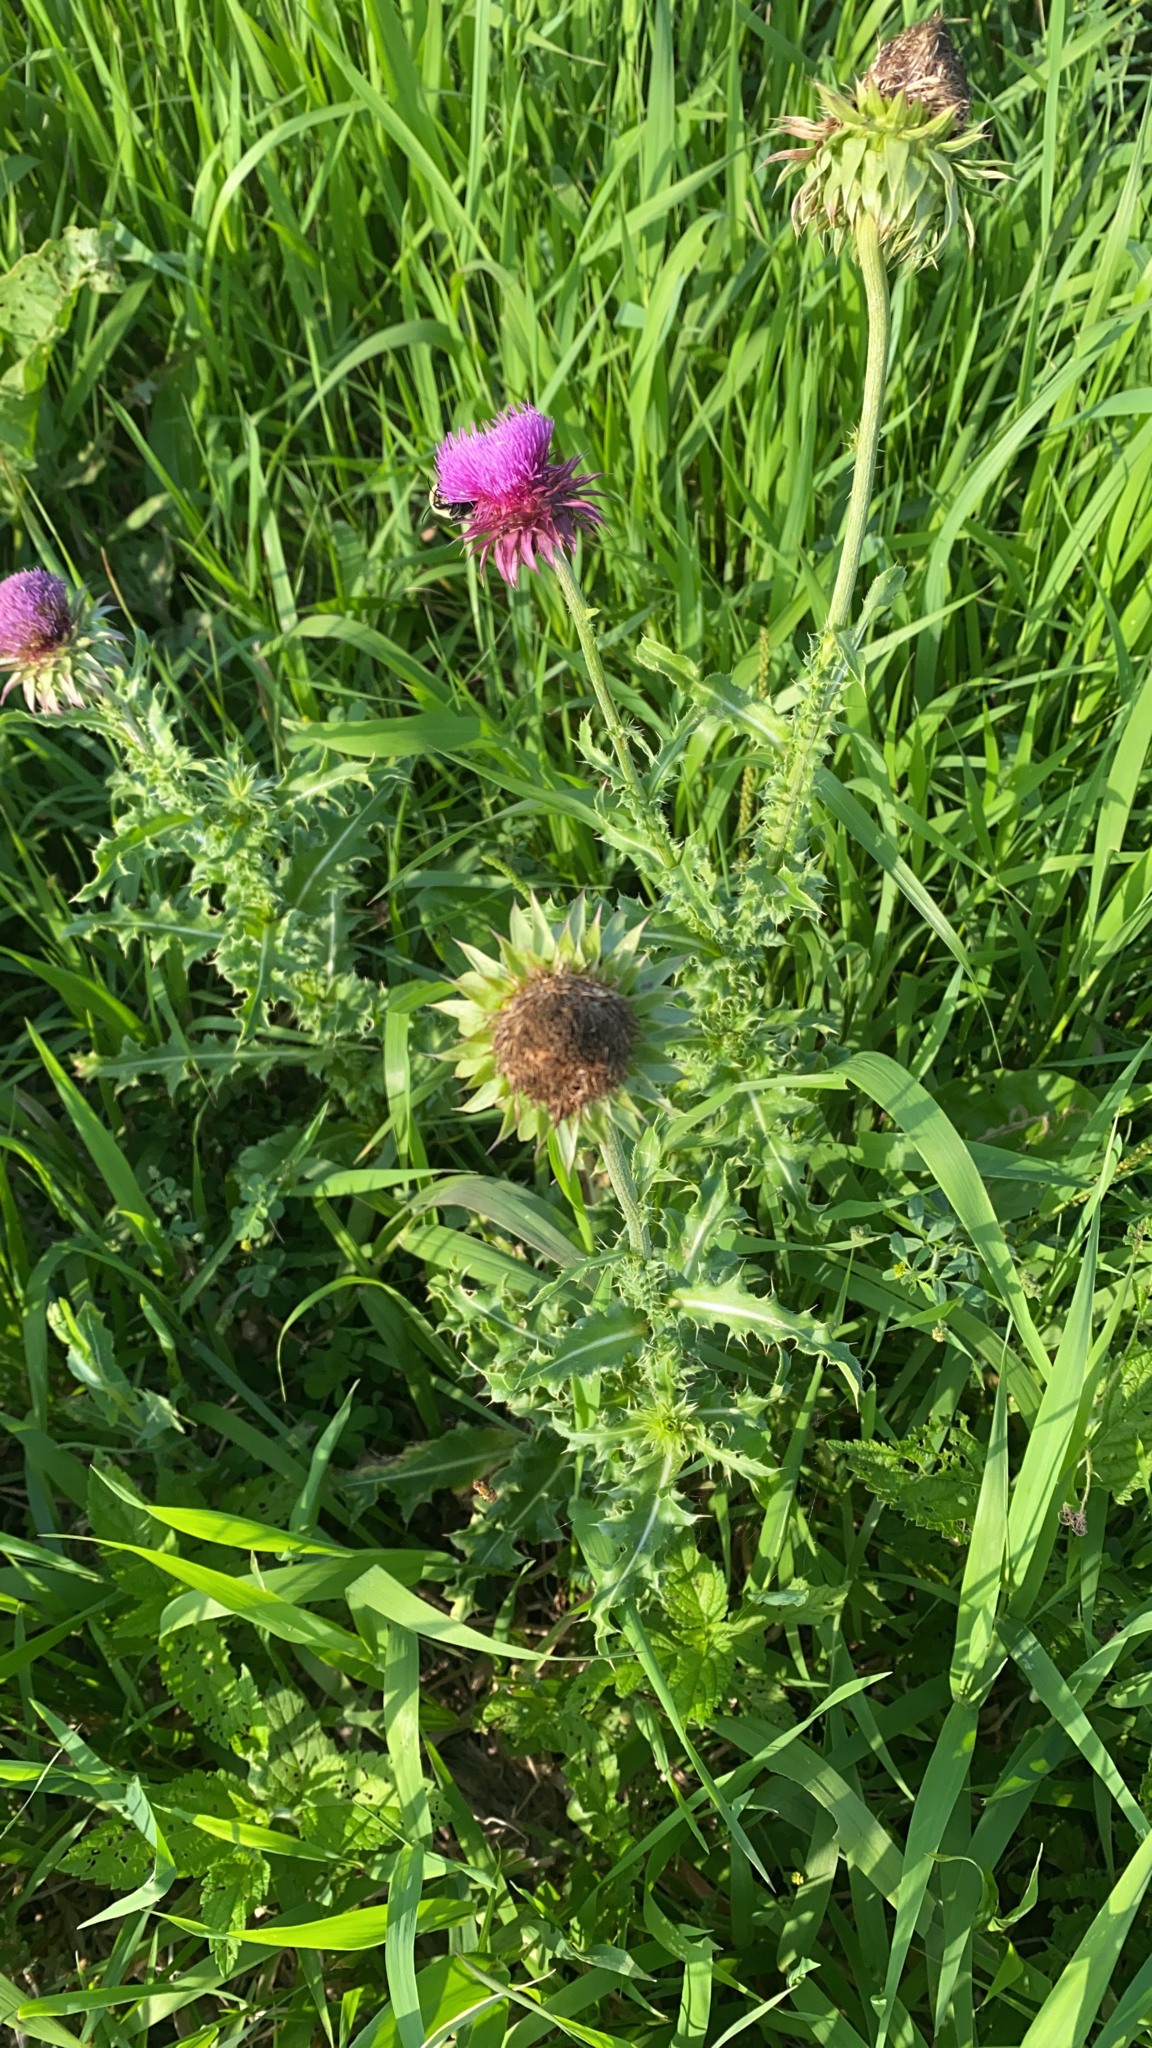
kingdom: Plantae
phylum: Tracheophyta
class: Magnoliopsida
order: Asterales
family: Asteraceae
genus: Carduus
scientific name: Carduus nutans
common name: Musk thistle
